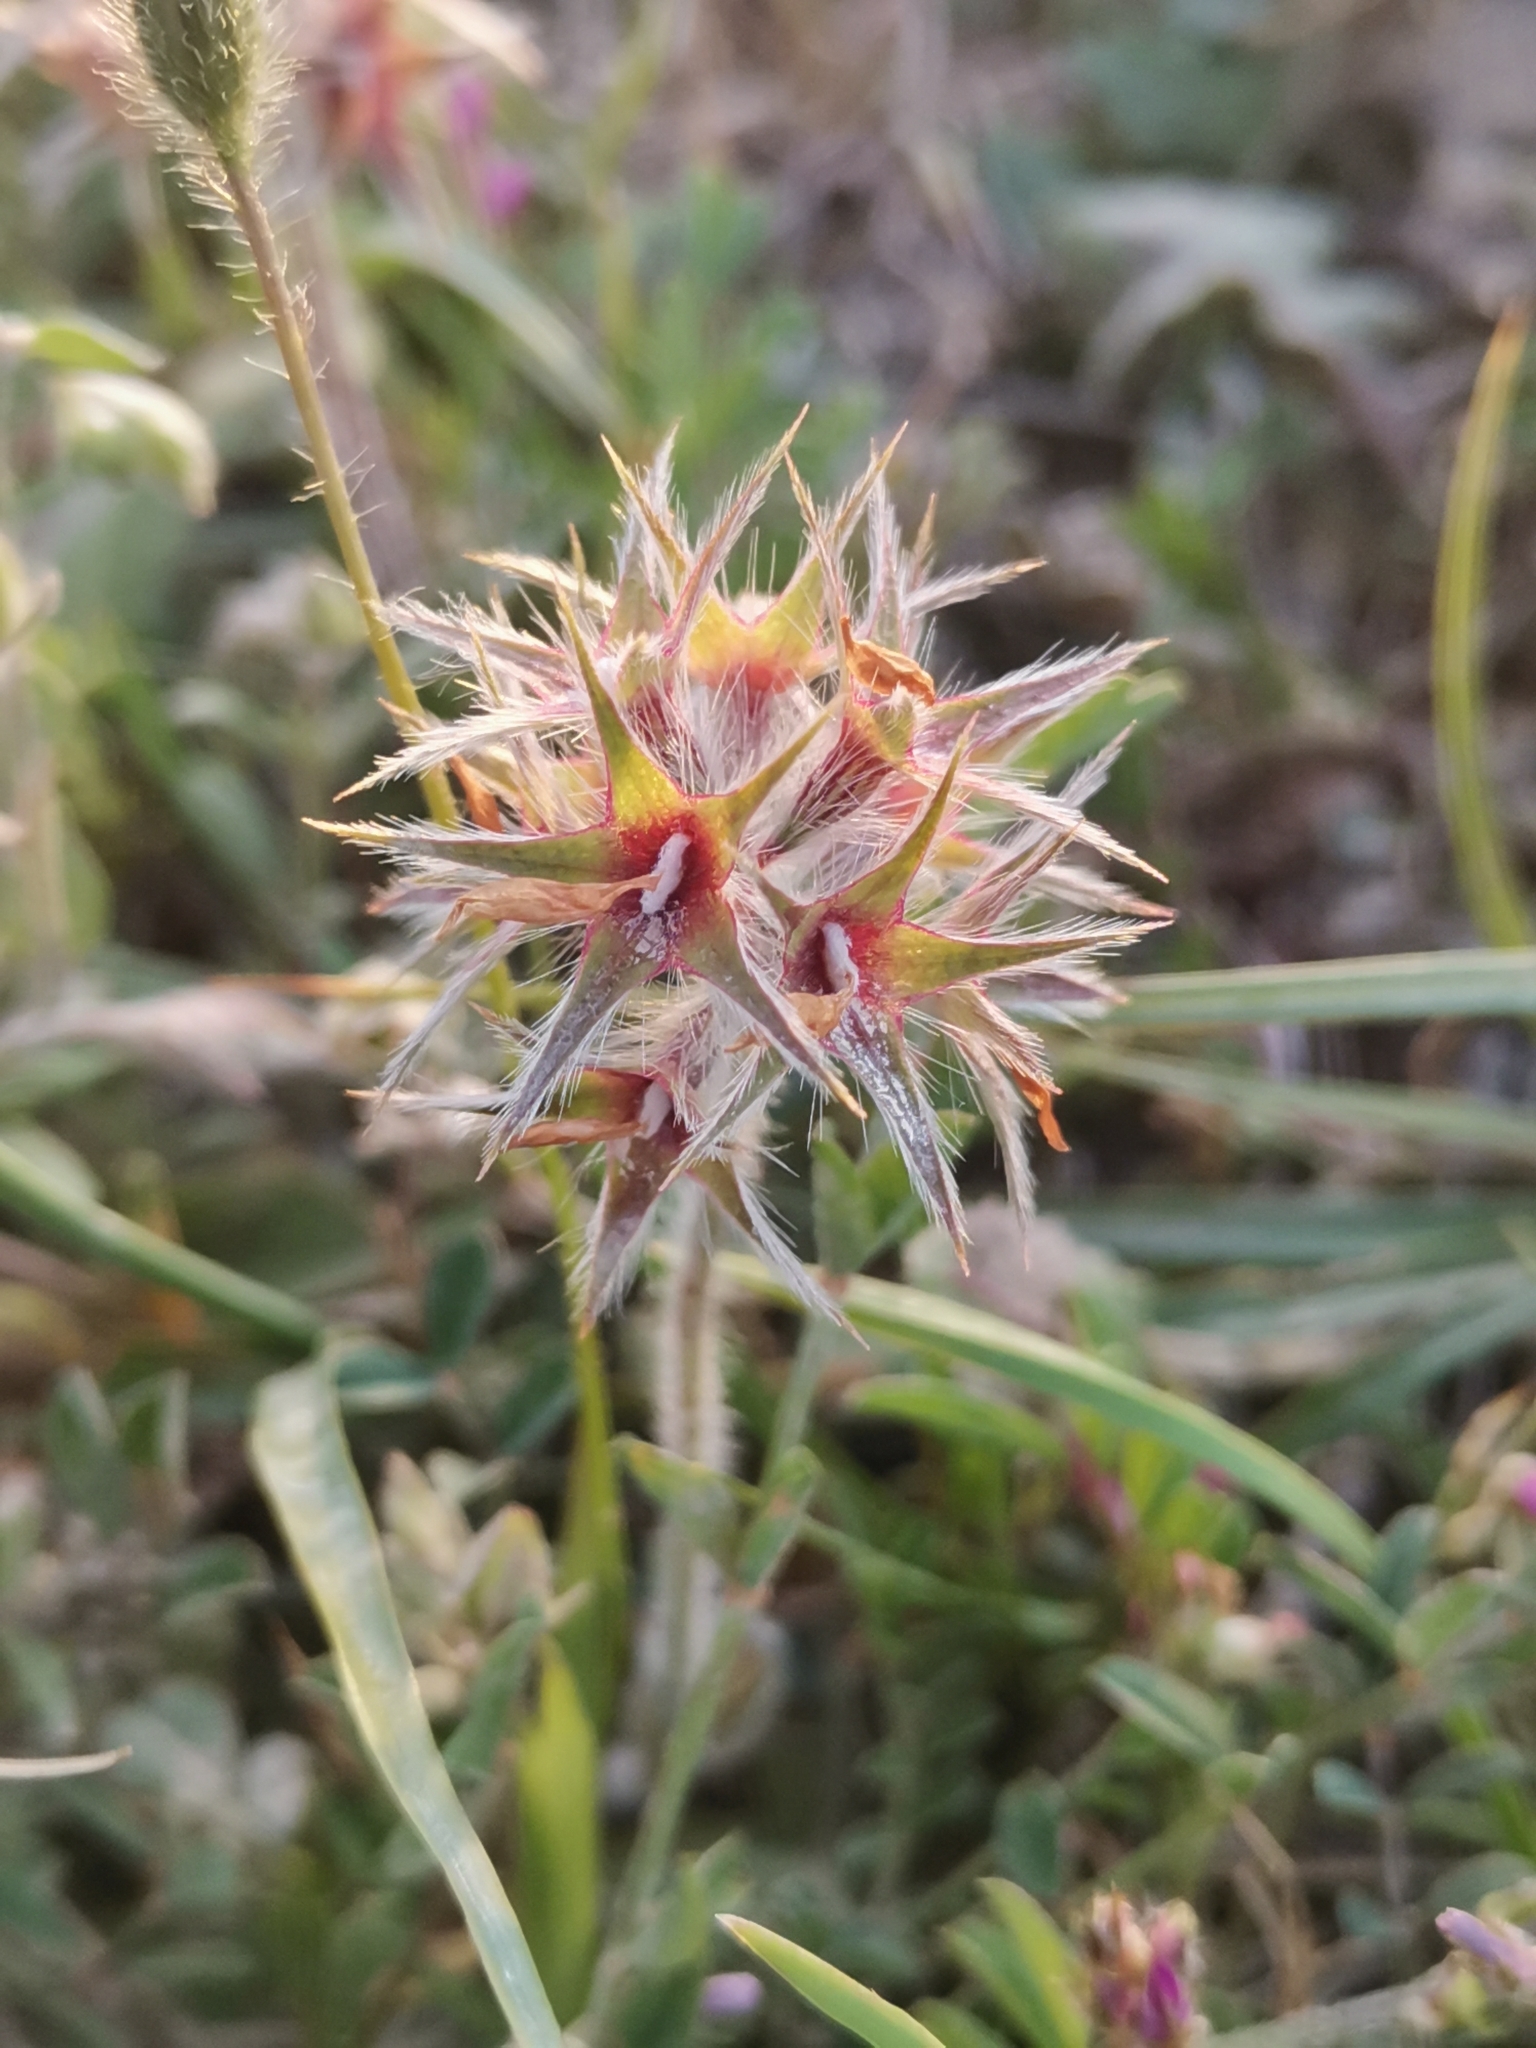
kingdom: Plantae
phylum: Tracheophyta
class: Magnoliopsida
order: Fabales
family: Fabaceae
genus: Trifolium
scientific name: Trifolium stellatum
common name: Starry clover
